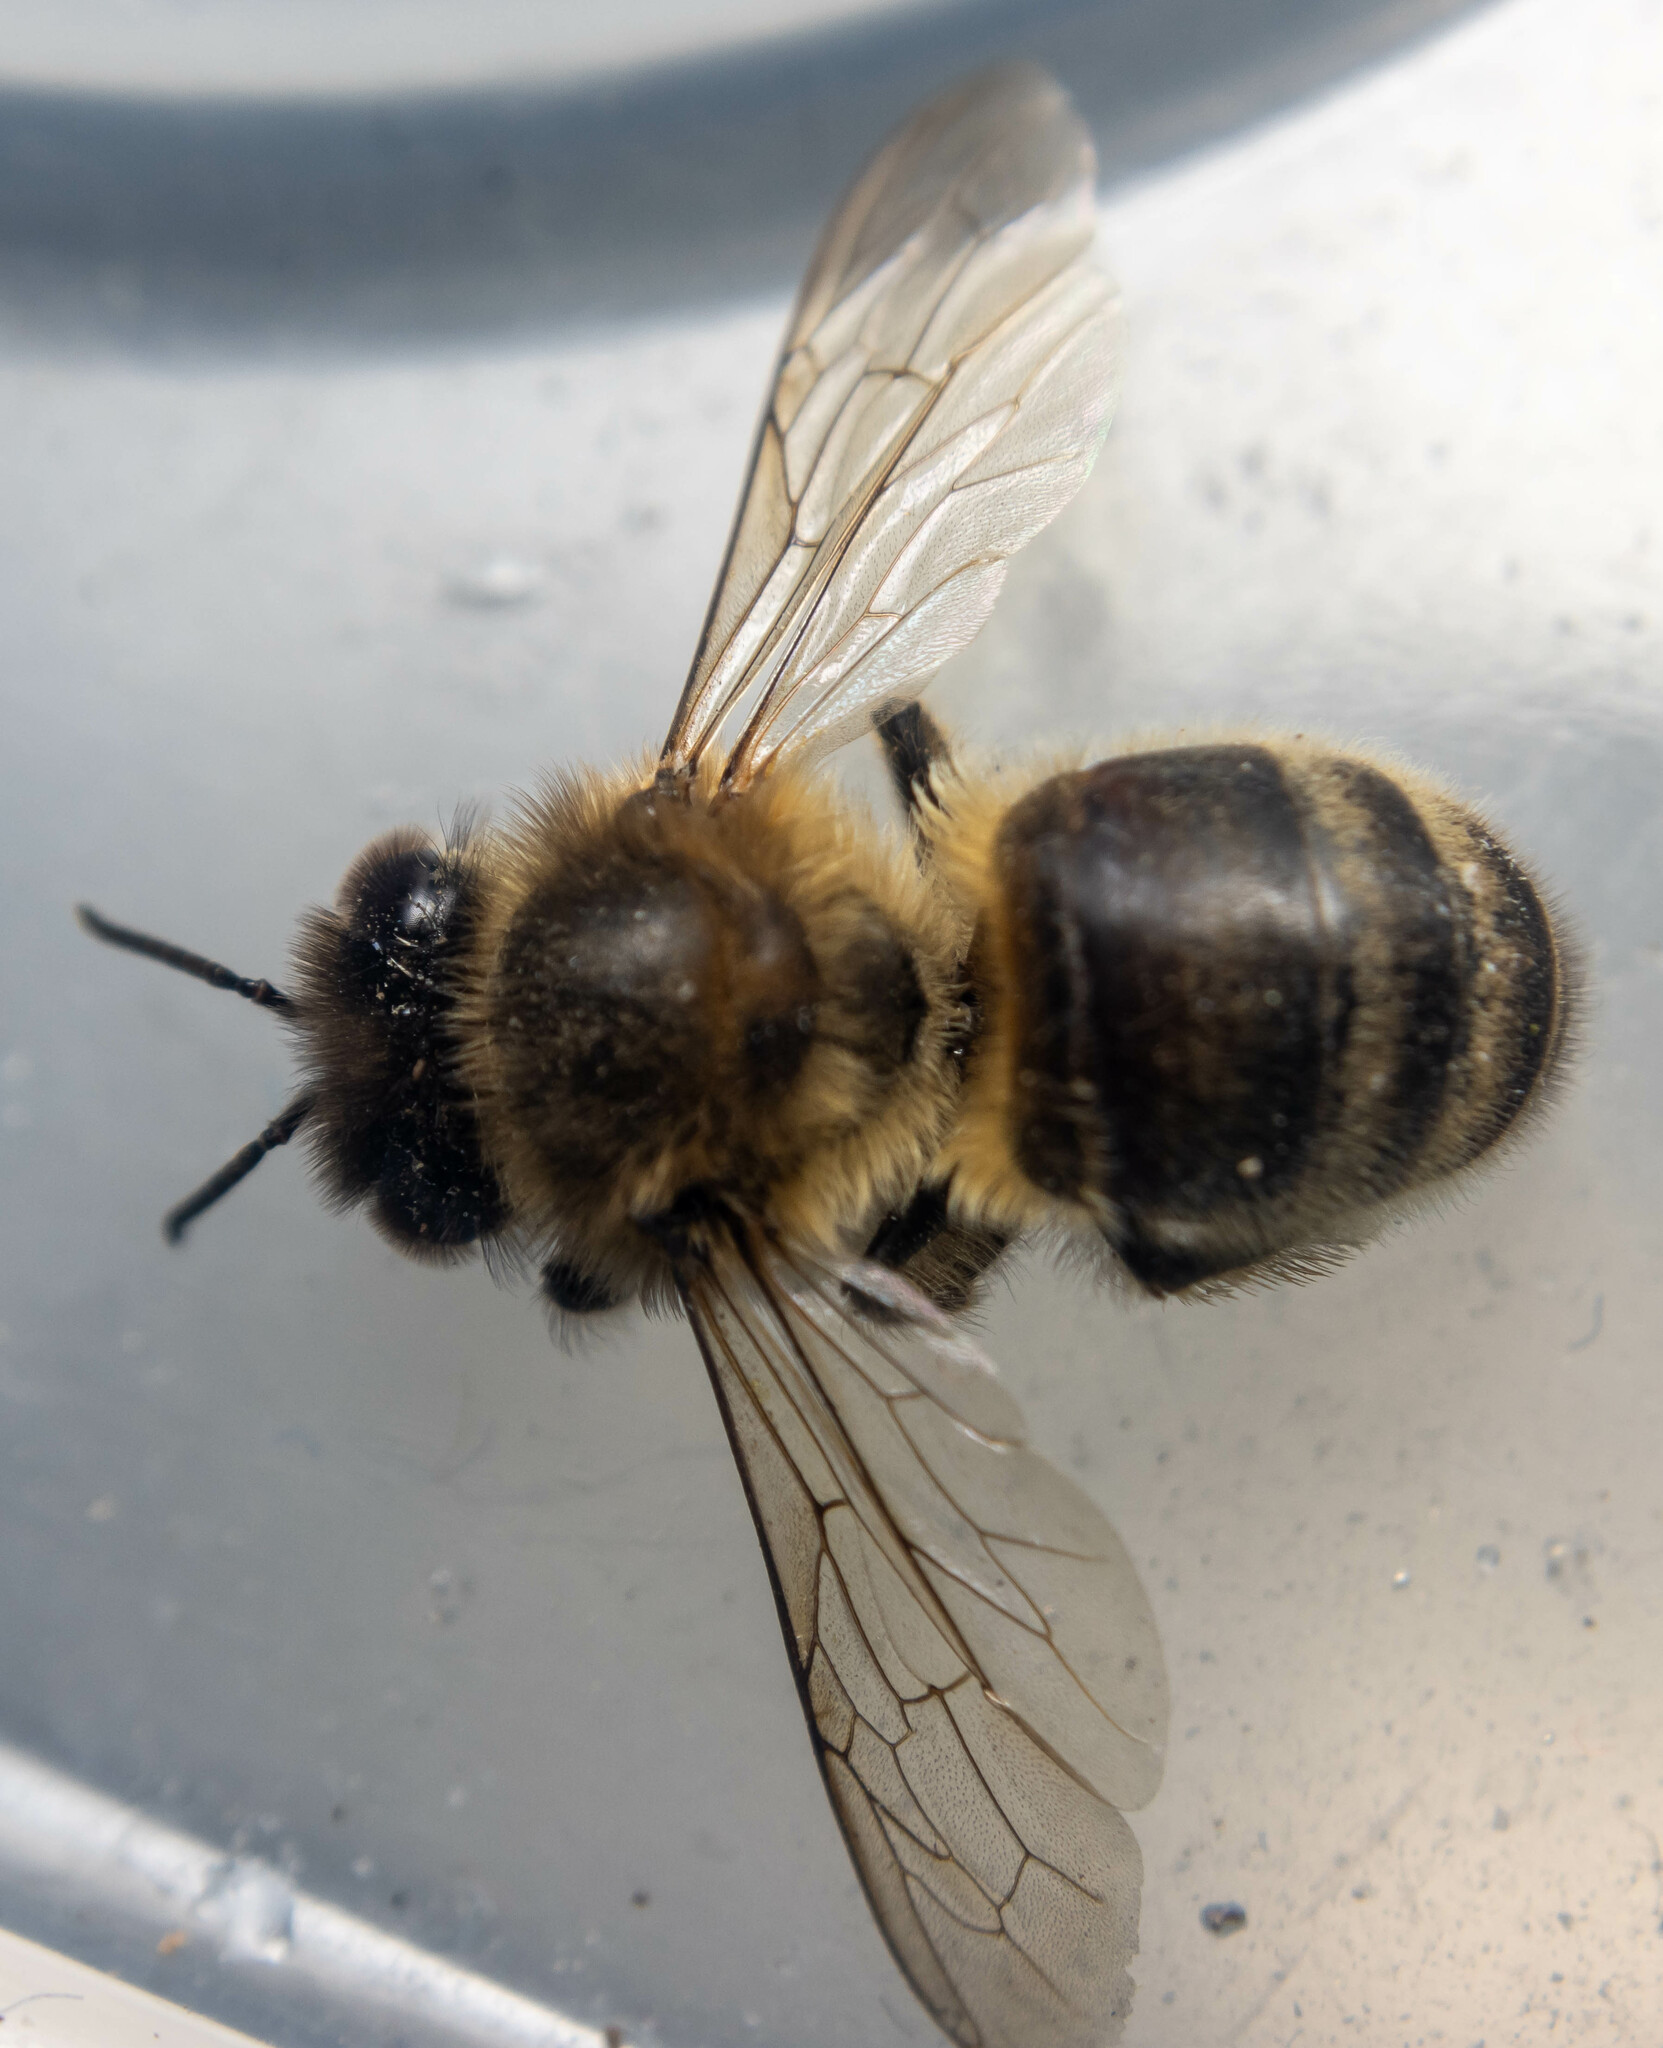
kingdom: Animalia
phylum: Arthropoda
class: Insecta
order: Hymenoptera
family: Apidae
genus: Apis
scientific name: Apis mellifera
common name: Honey bee
